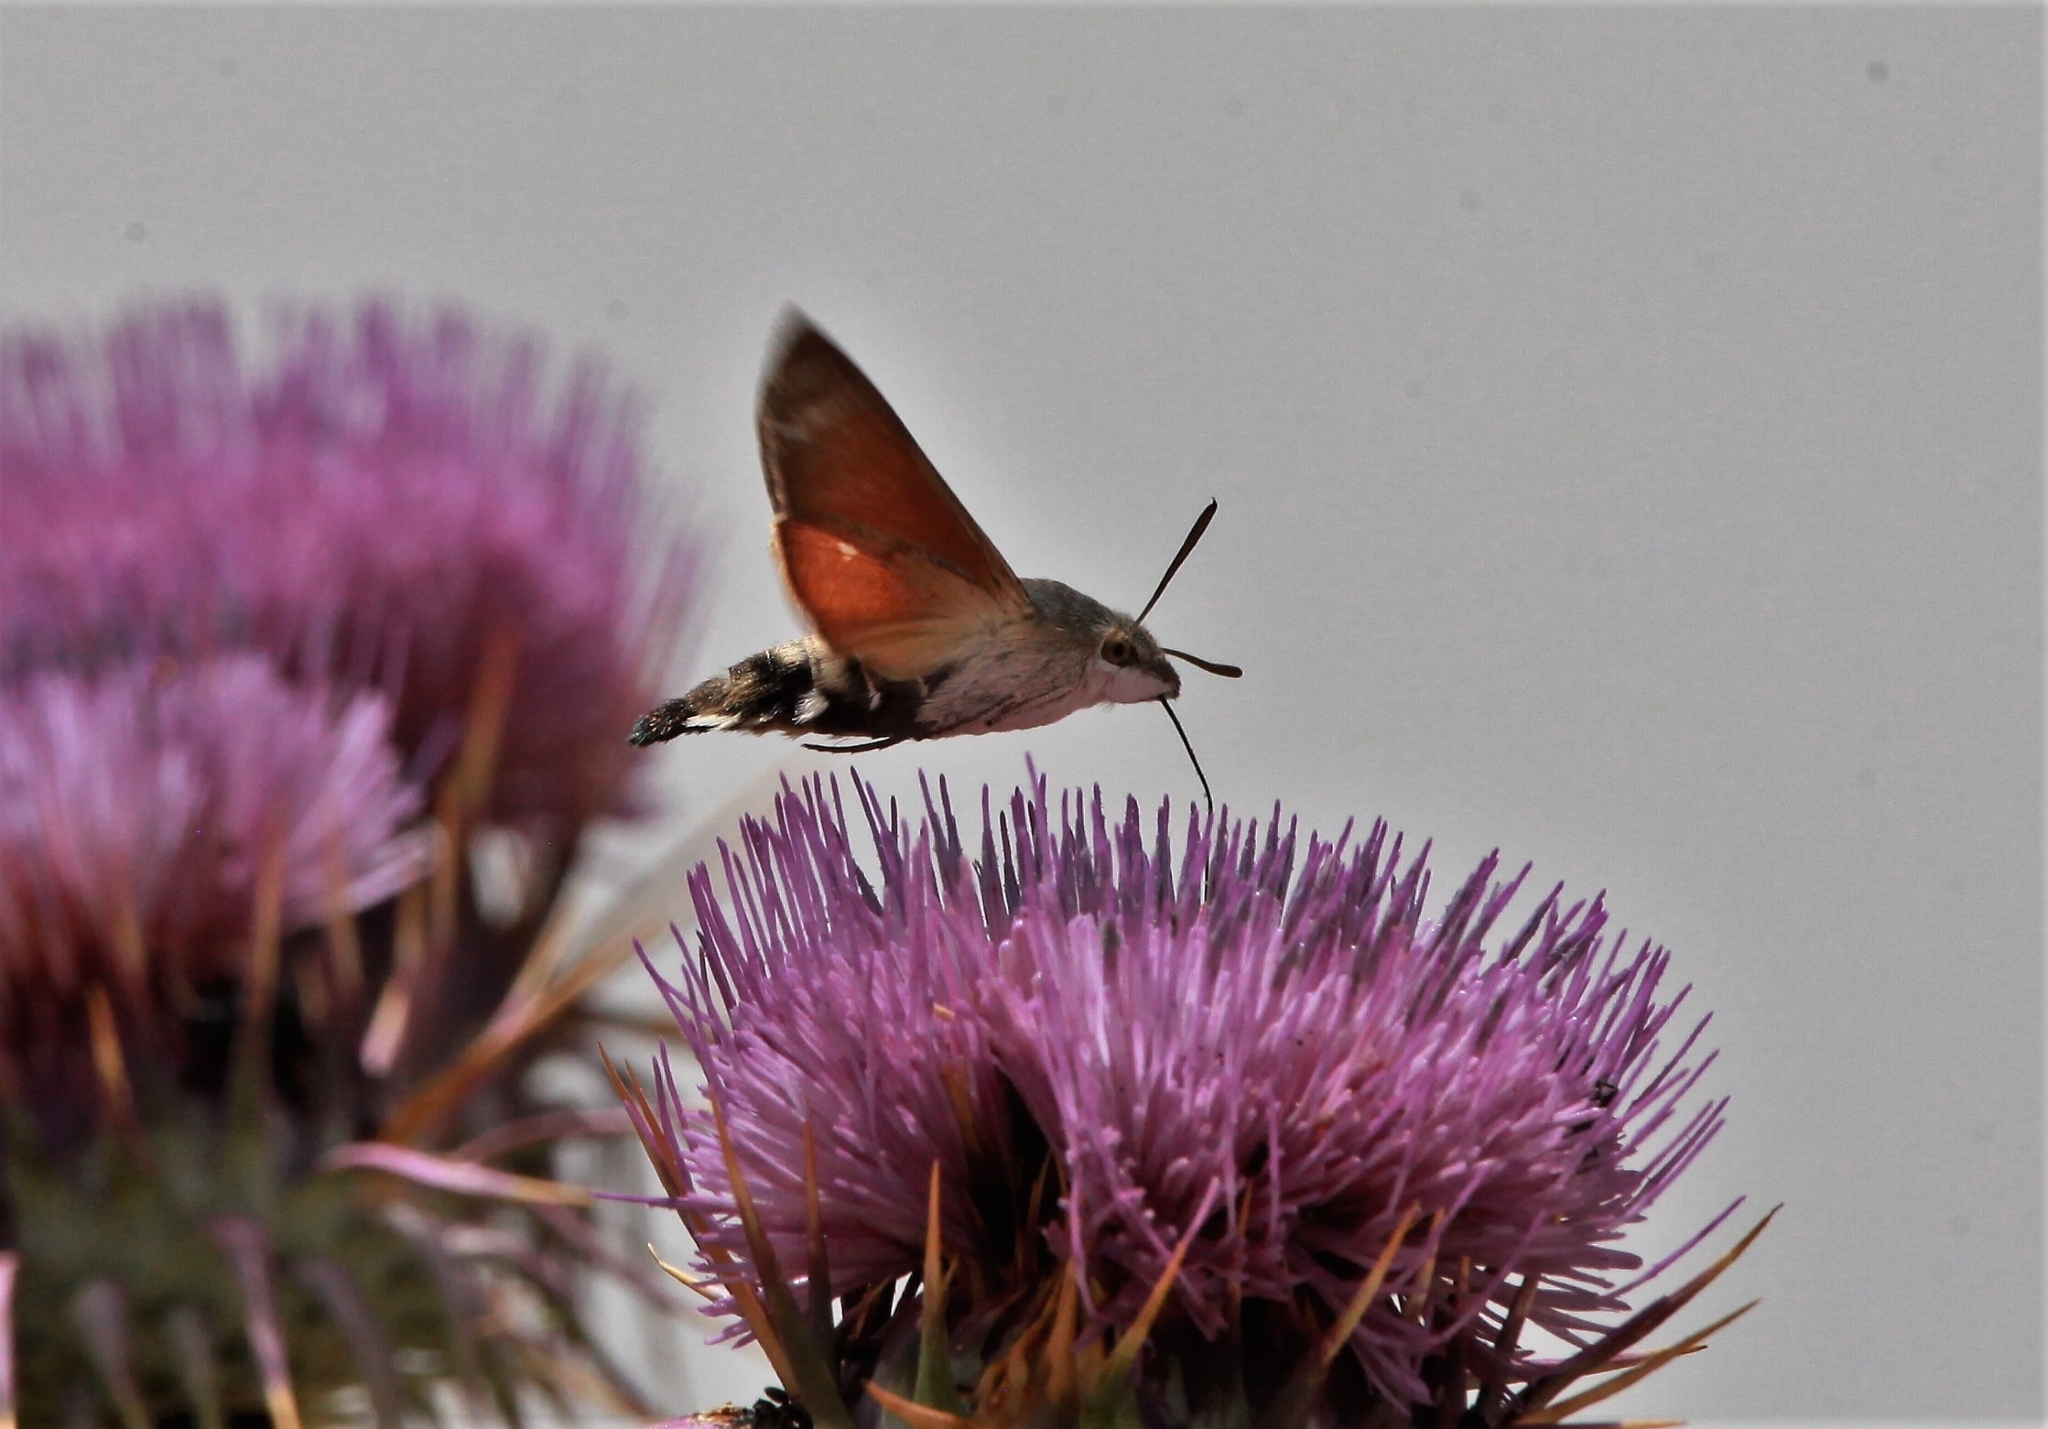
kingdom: Animalia
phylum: Arthropoda
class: Insecta
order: Lepidoptera
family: Sphingidae
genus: Macroglossum
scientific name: Macroglossum stellatarum
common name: Humming-bird hawk-moth
